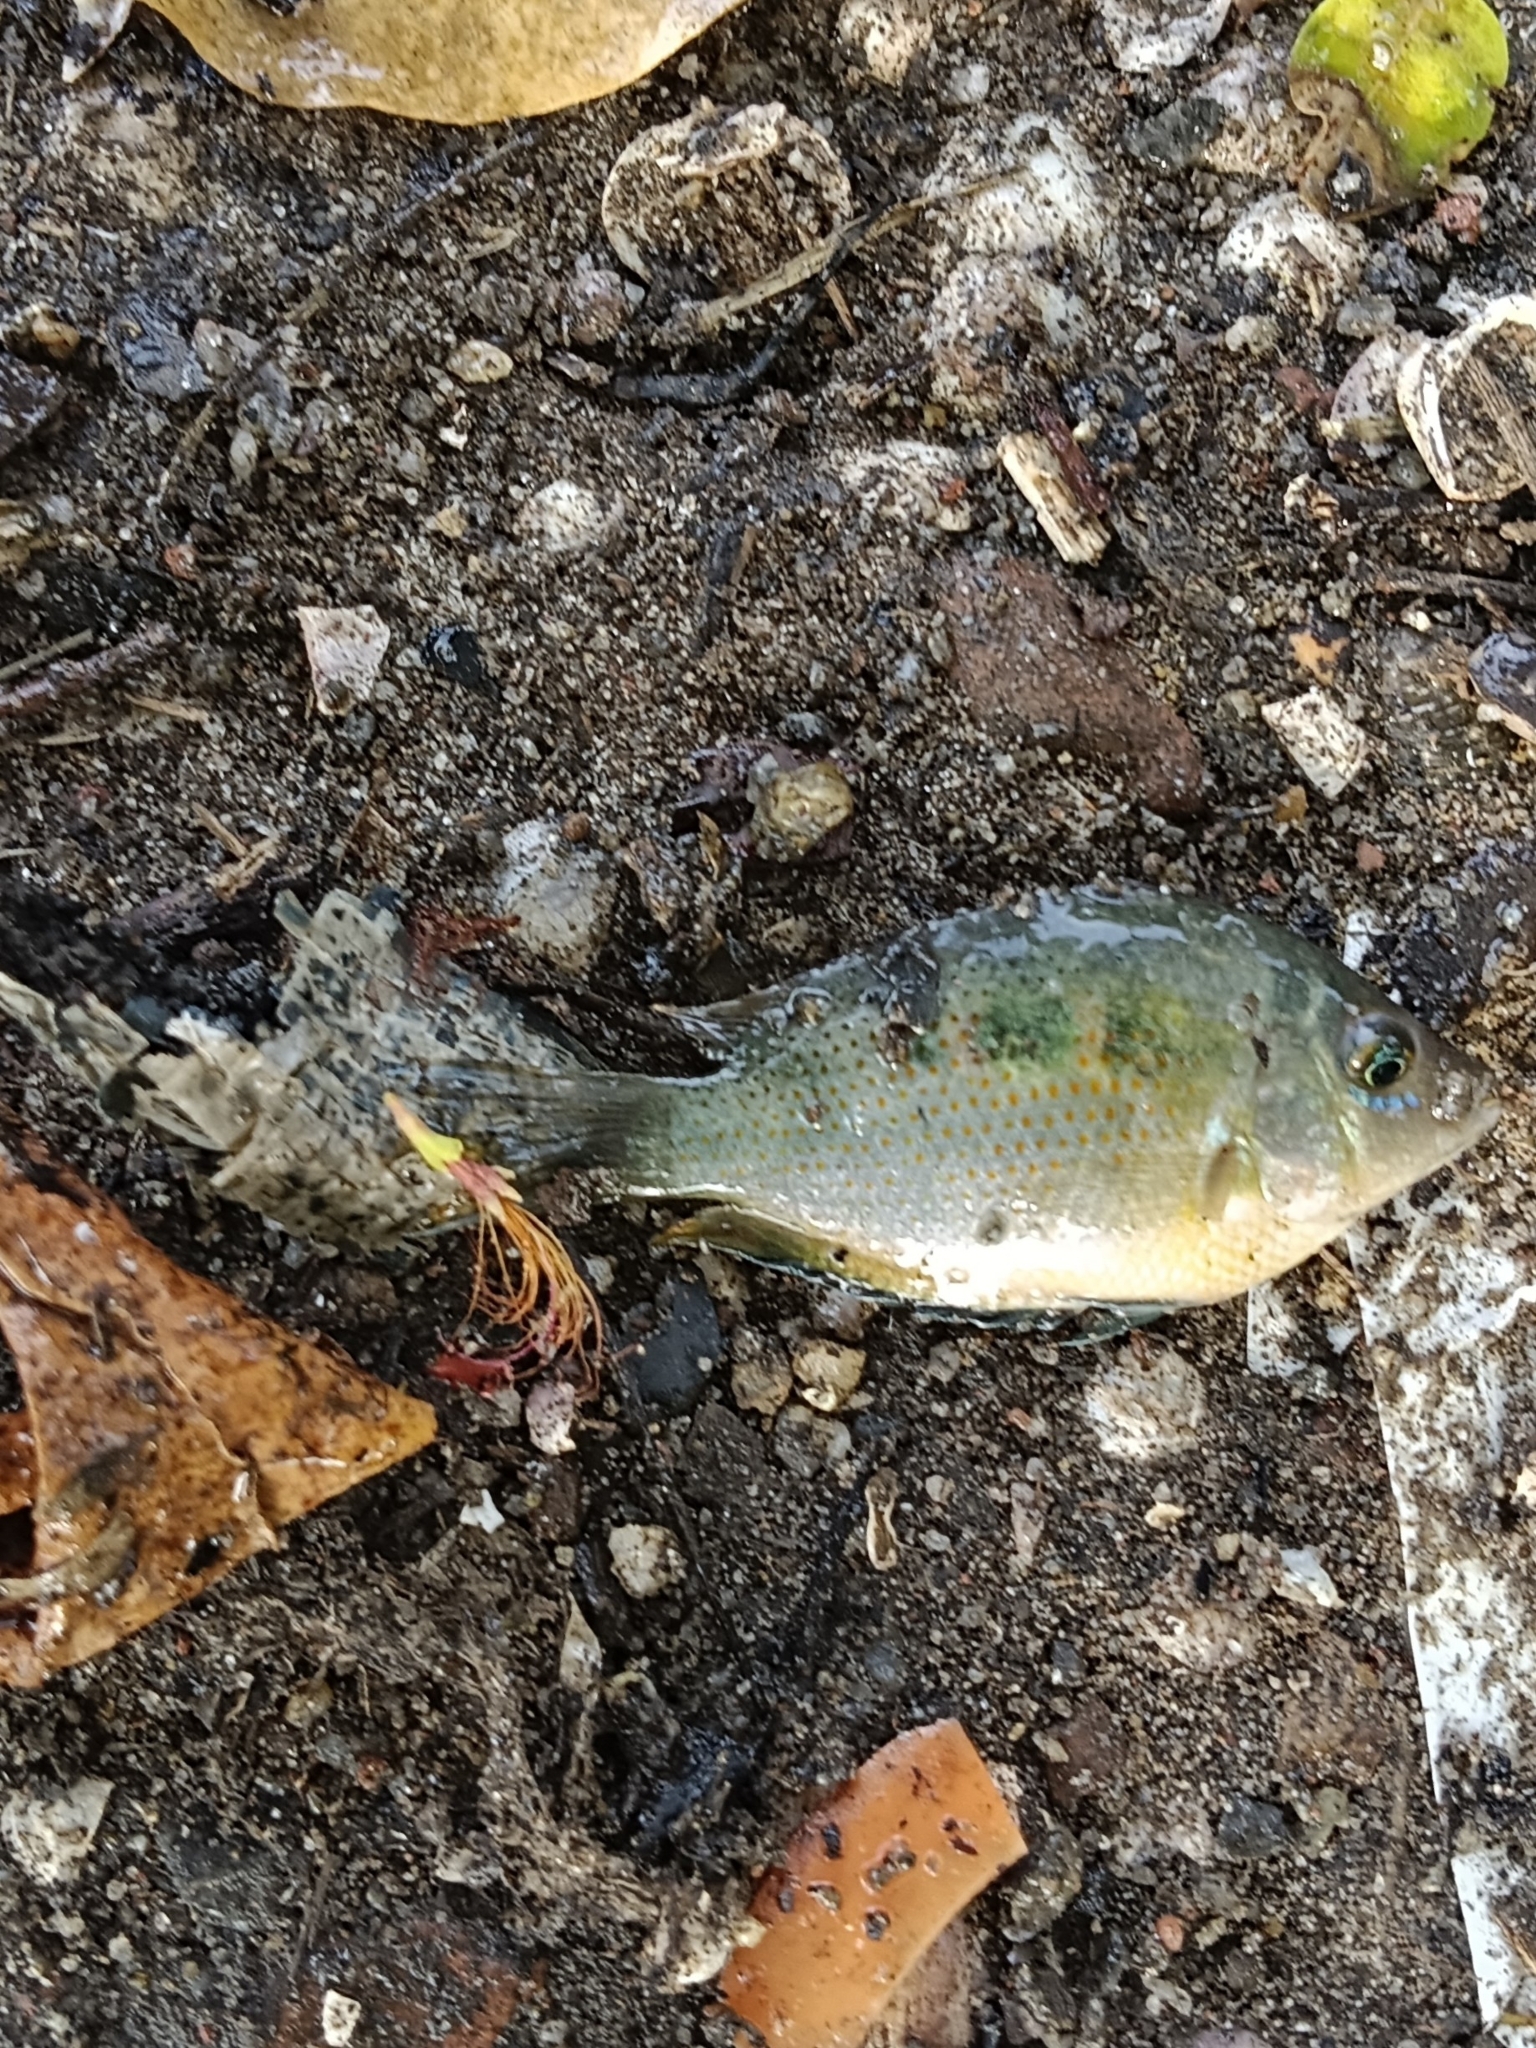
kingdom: Animalia
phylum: Chordata
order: Perciformes
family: Cichlidae
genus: Etroplus
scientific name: Etroplus maculatus
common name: Orange chromide
